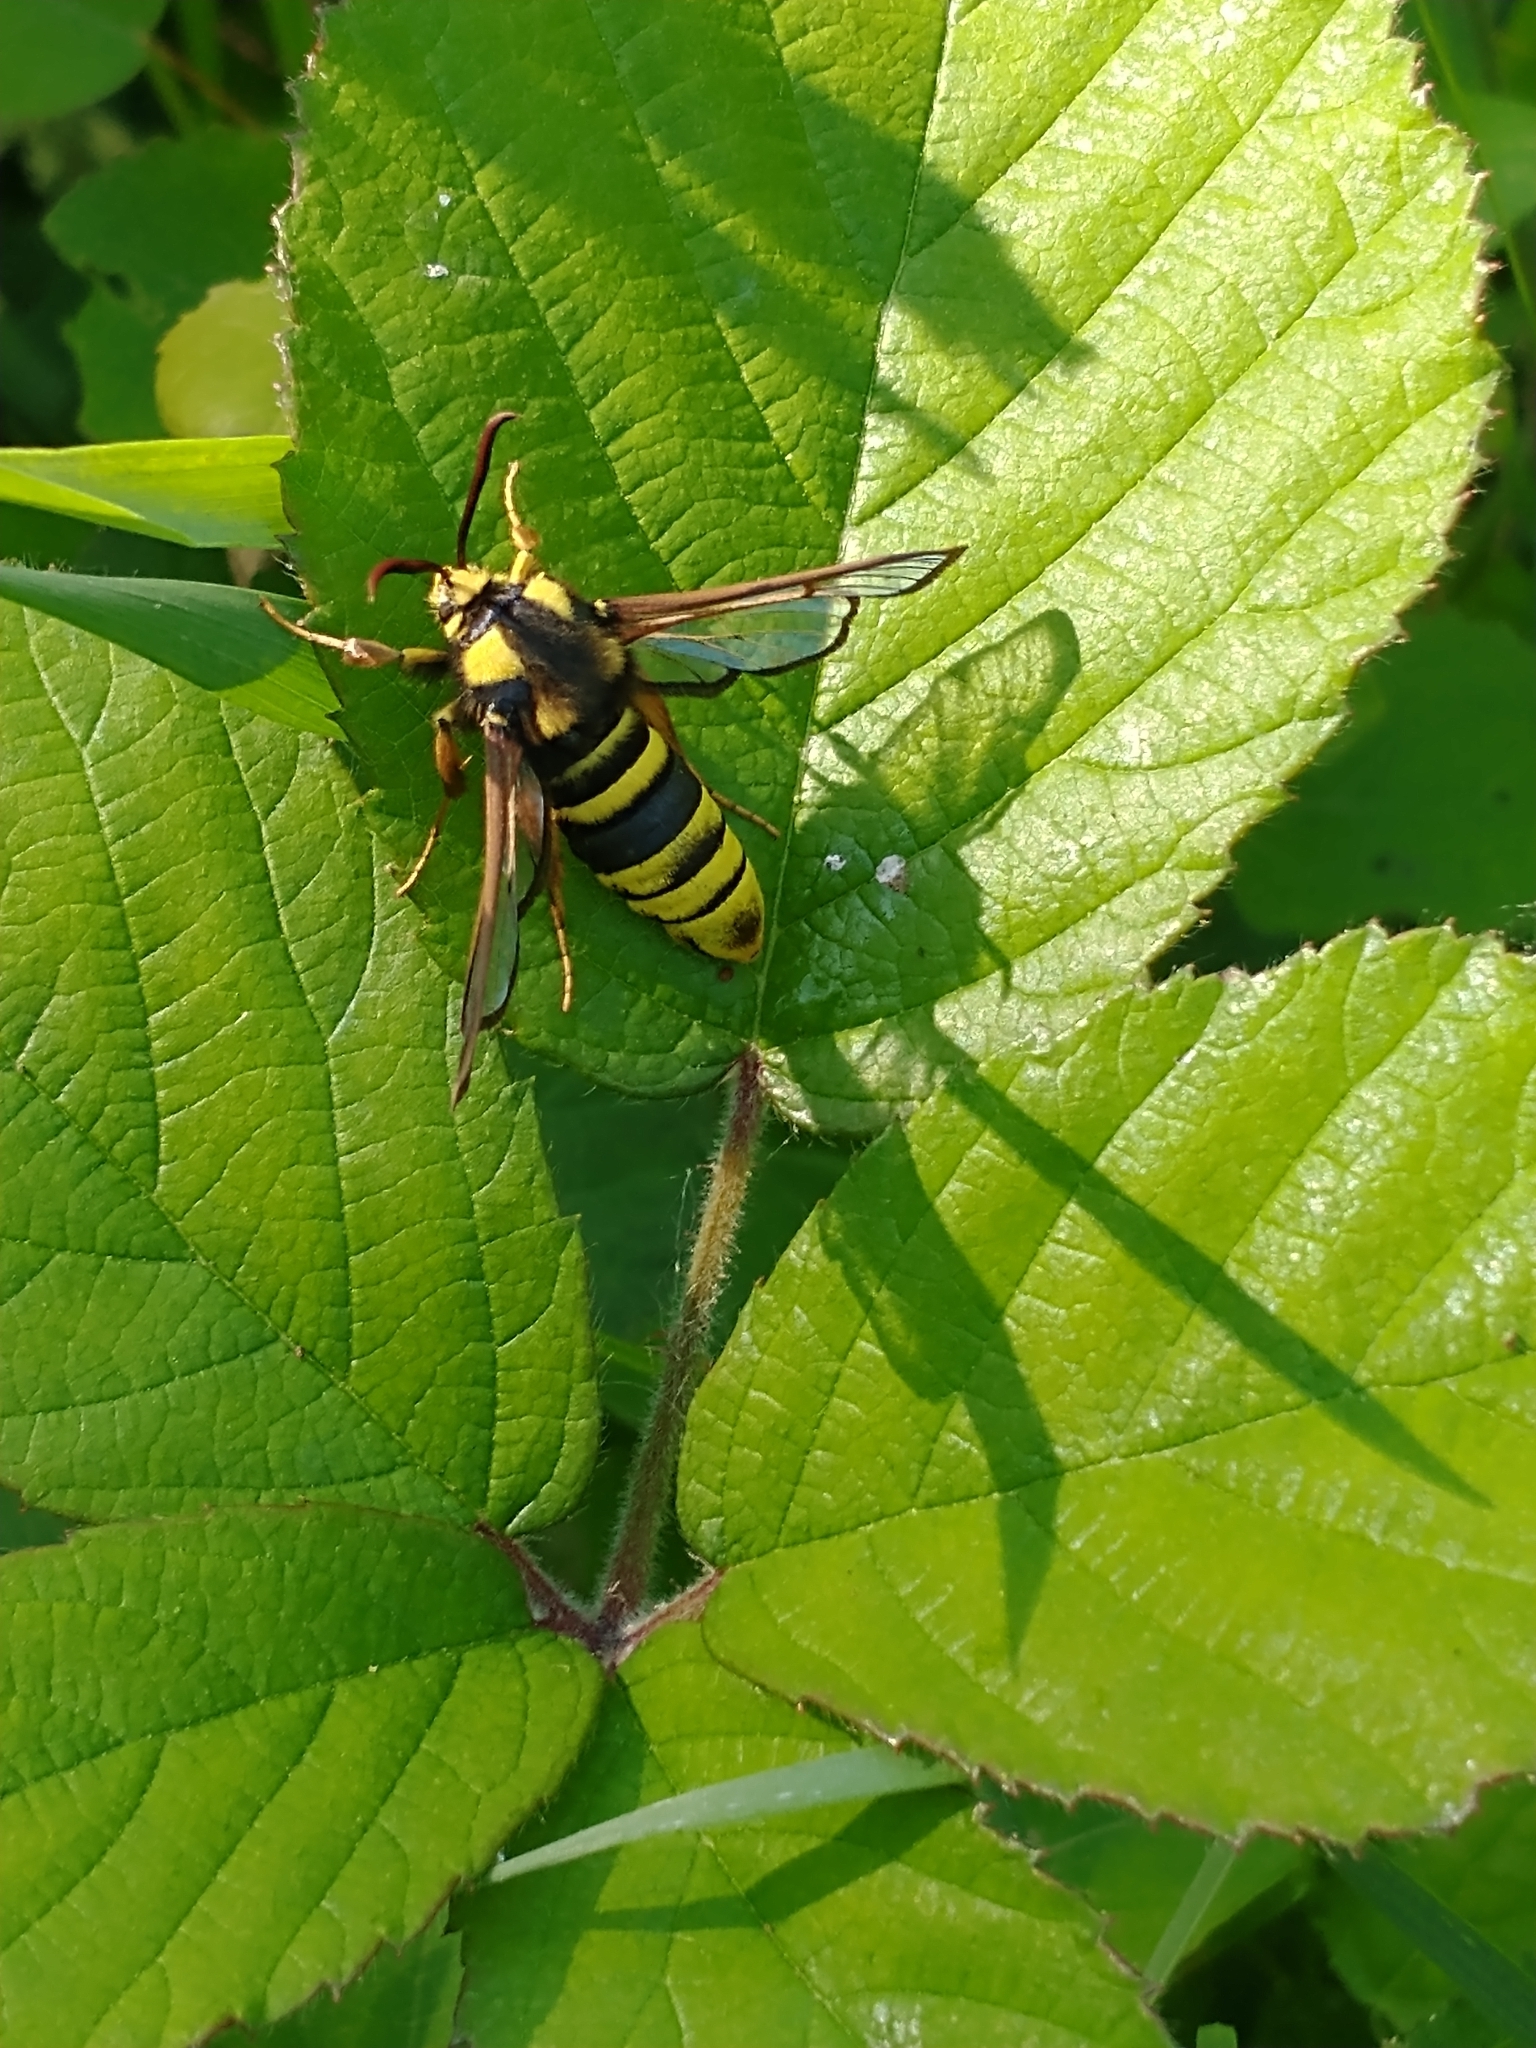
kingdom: Animalia
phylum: Arthropoda
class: Insecta
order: Lepidoptera
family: Sesiidae
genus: Sesia
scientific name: Sesia apiformis
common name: Hornet moth
